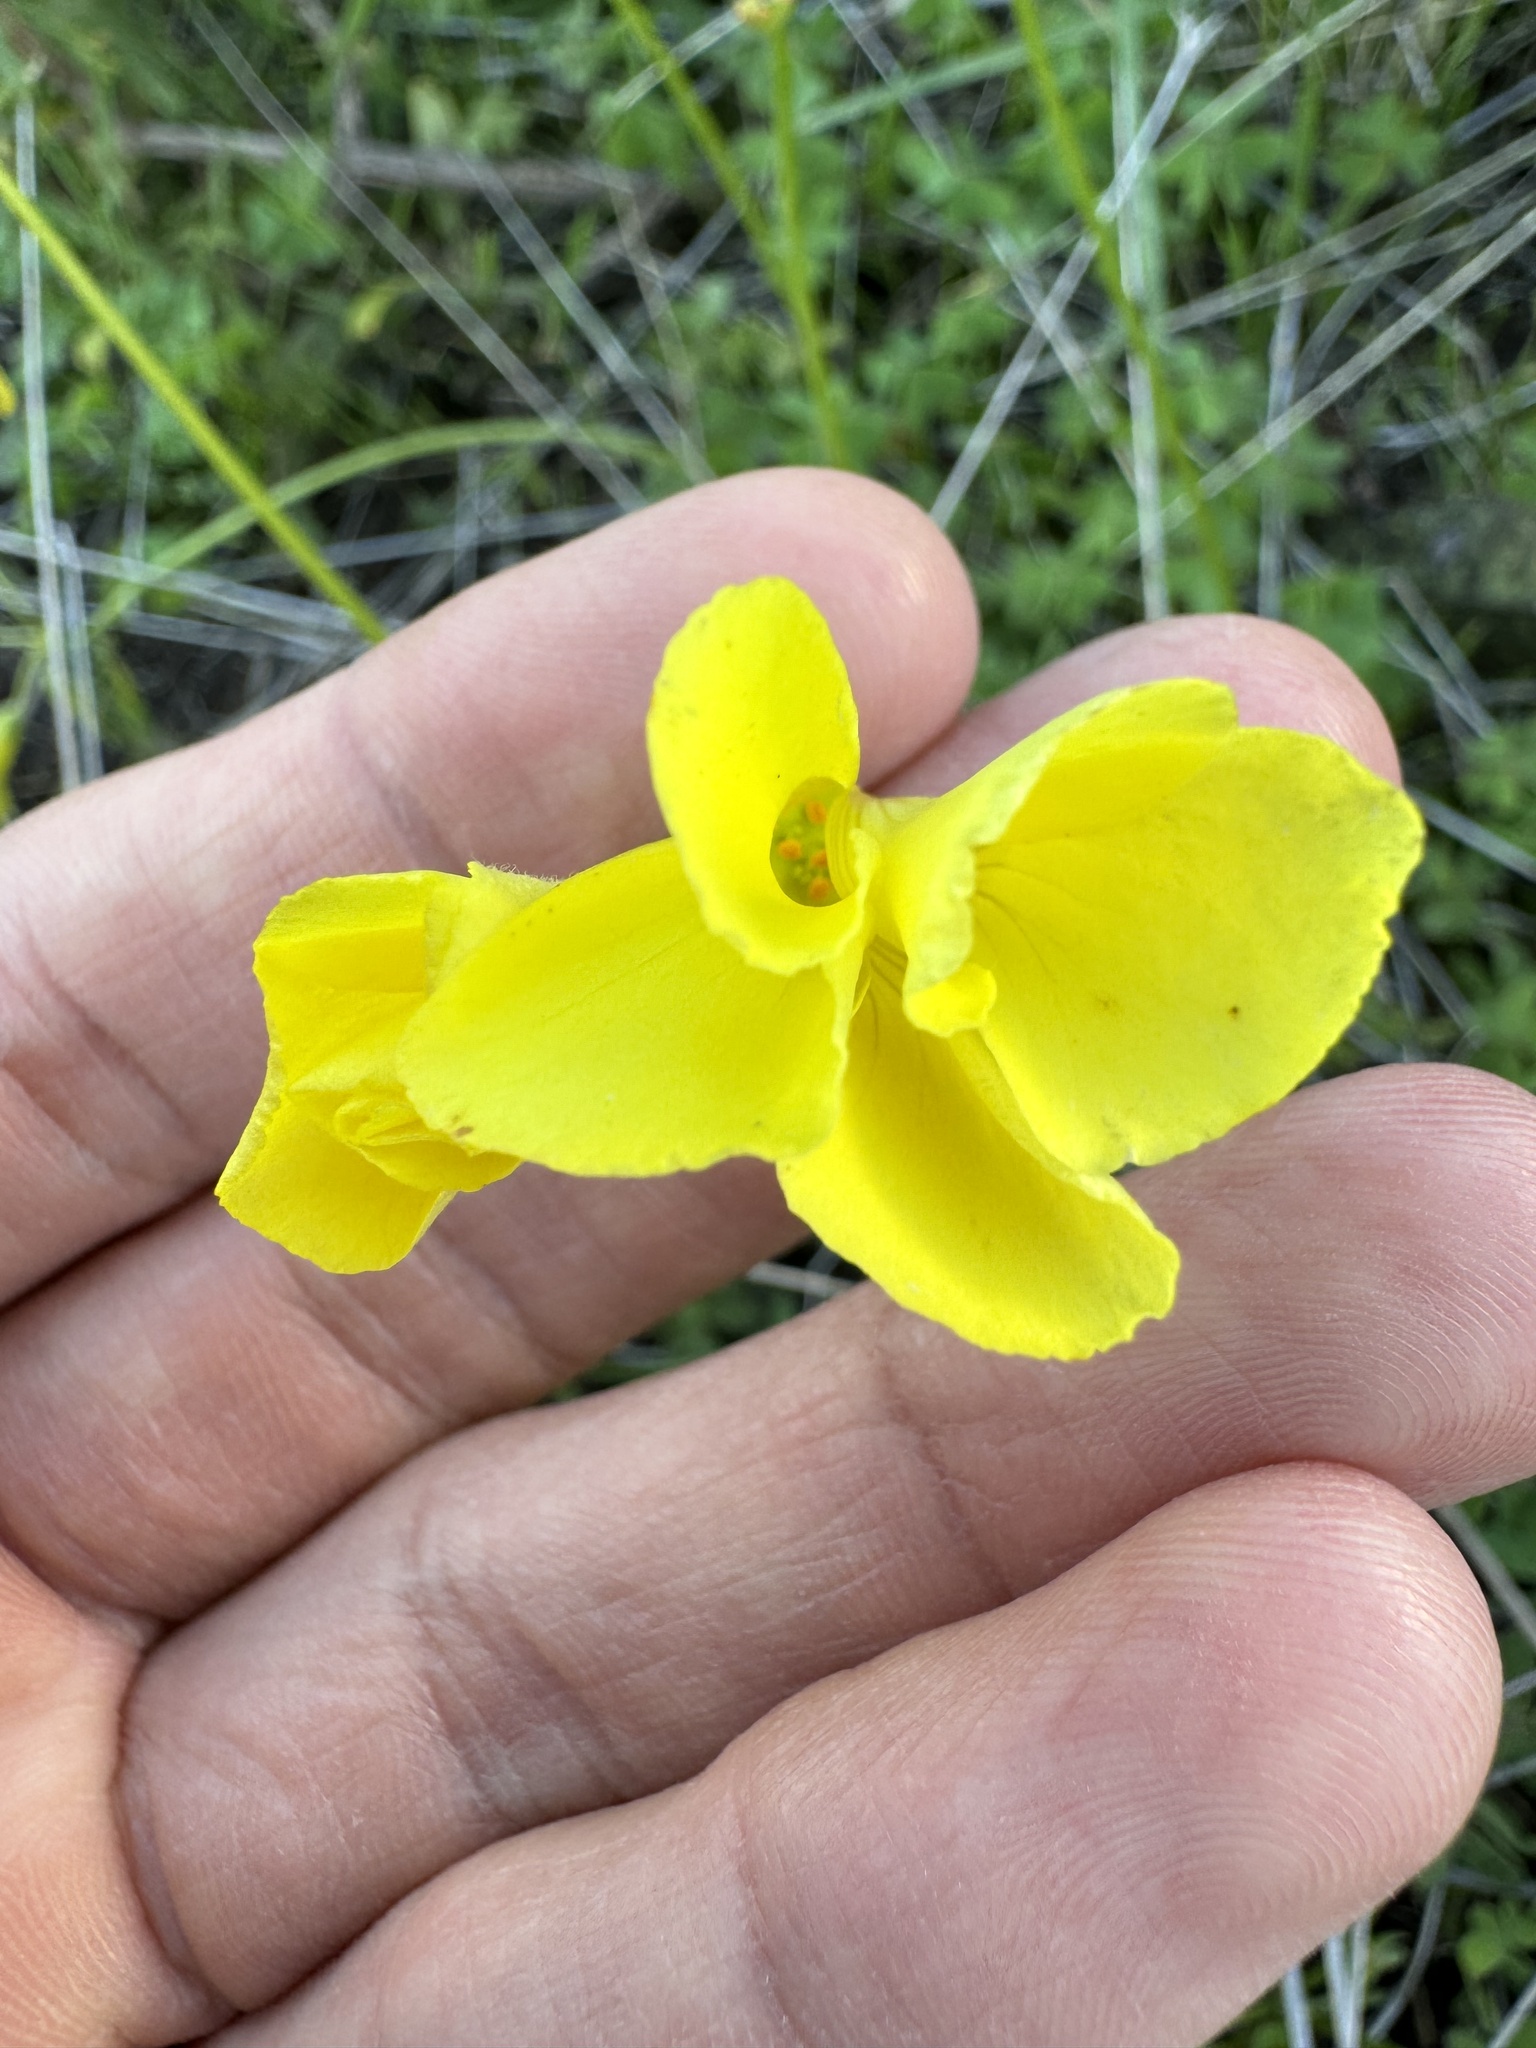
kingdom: Plantae
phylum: Tracheophyta
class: Magnoliopsida
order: Oxalidales
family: Oxalidaceae
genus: Oxalis
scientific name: Oxalis pes-caprae
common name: Bermuda-buttercup
